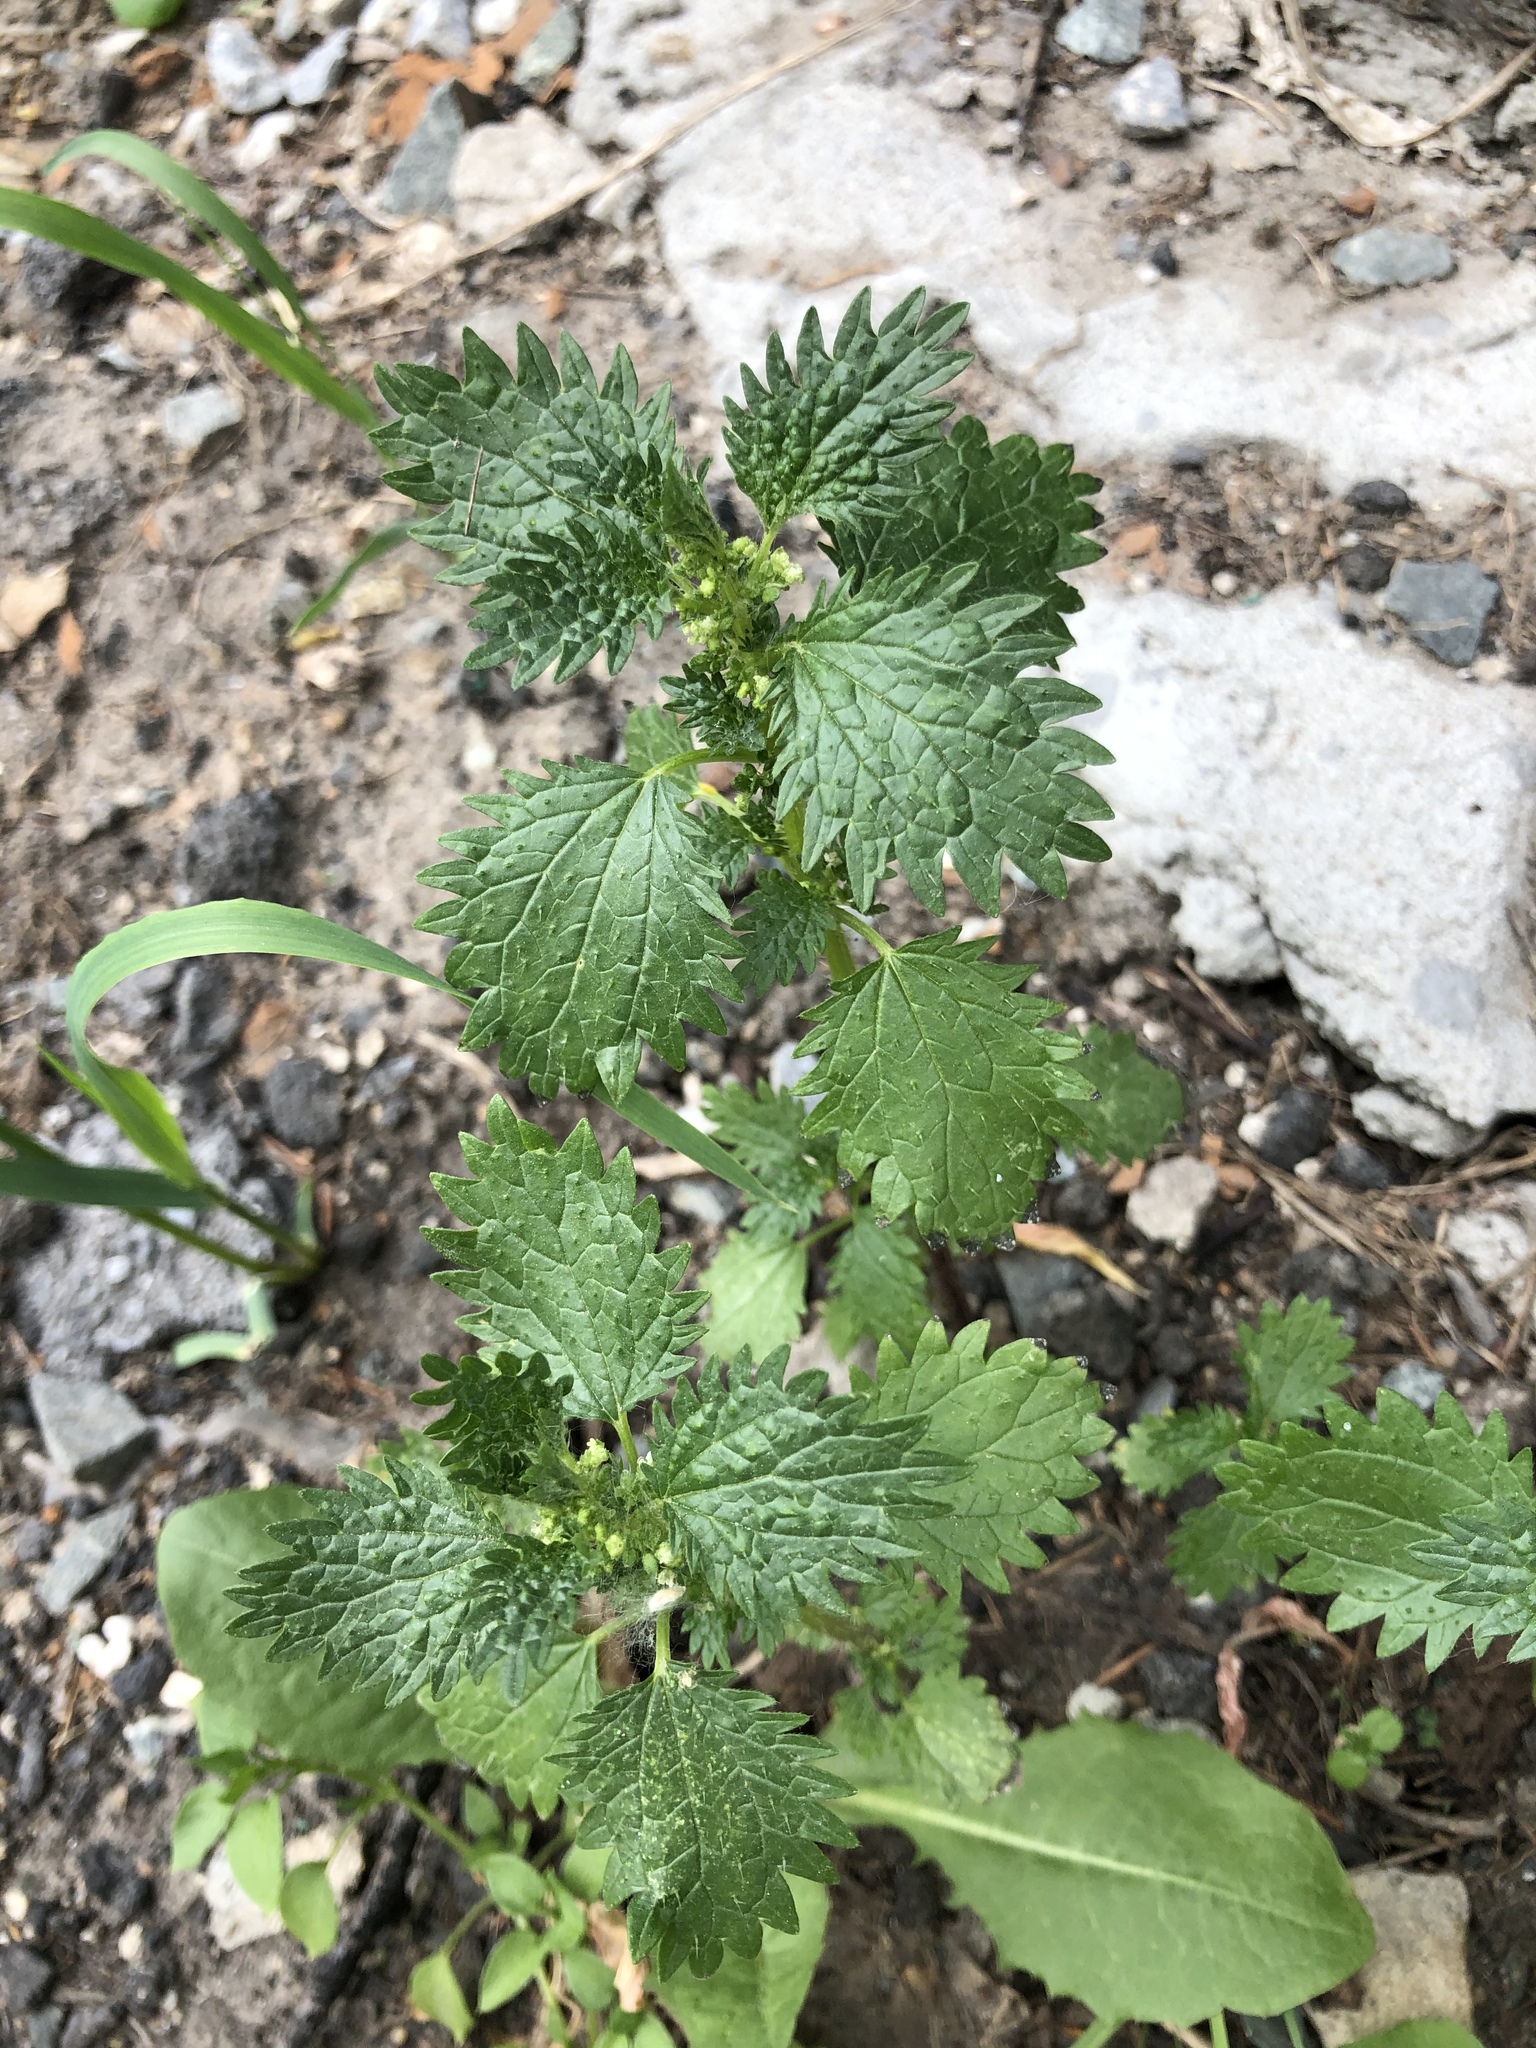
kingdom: Plantae
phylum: Tracheophyta
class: Magnoliopsida
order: Rosales
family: Urticaceae
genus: Urtica
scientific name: Urtica urens
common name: Dwarf nettle
